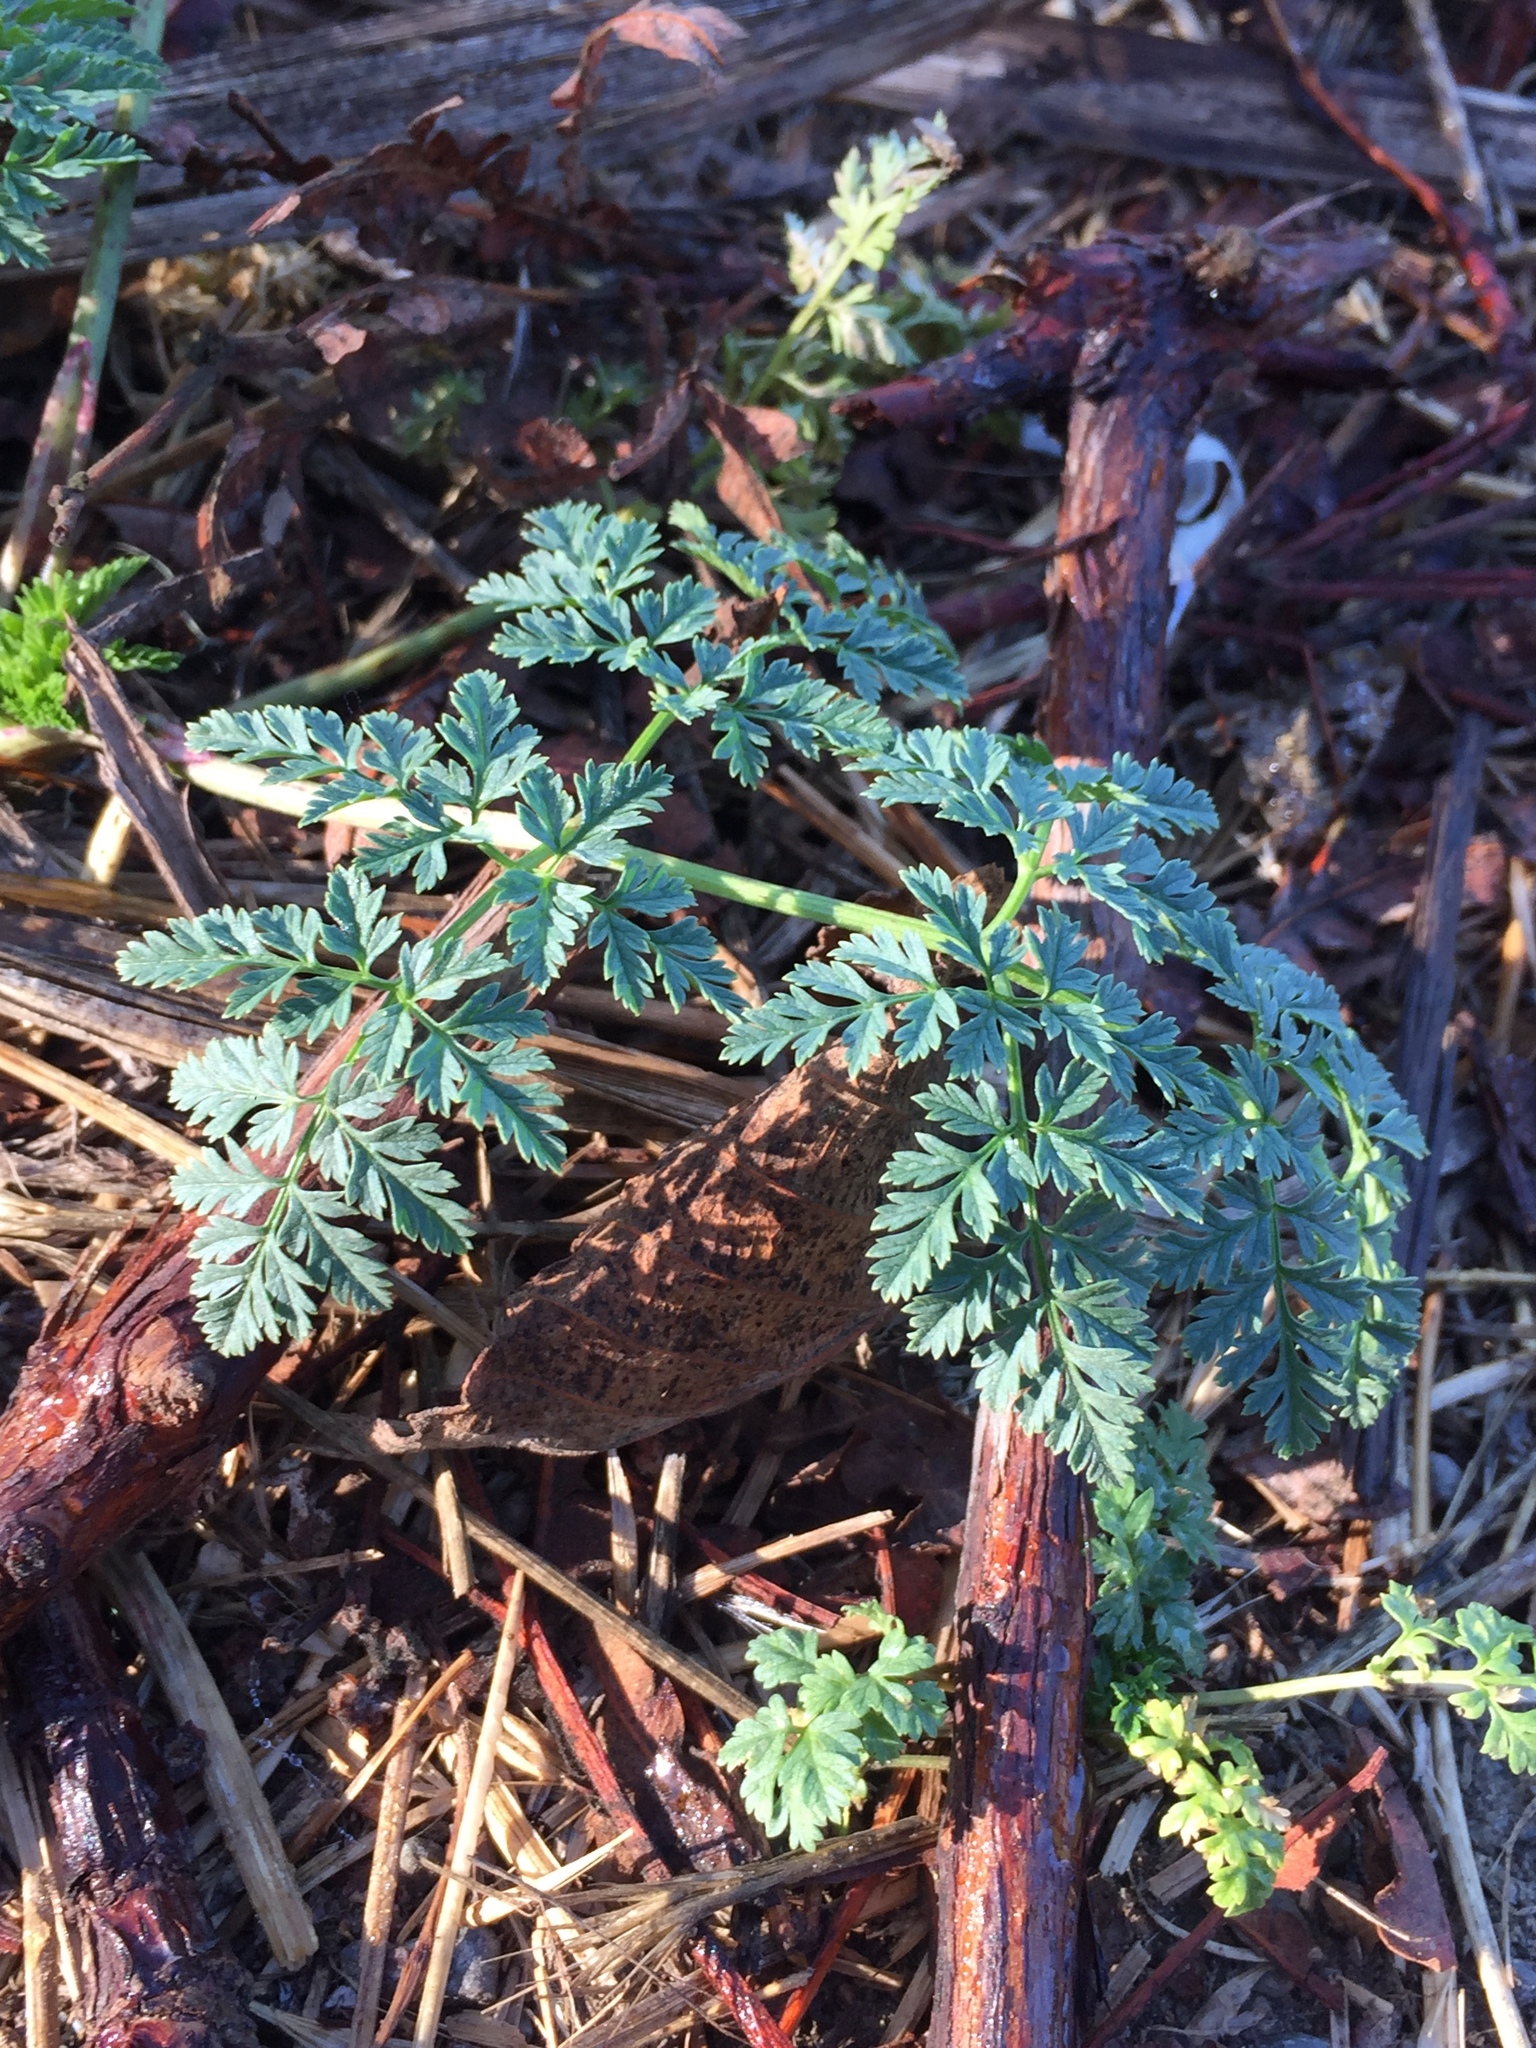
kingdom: Plantae
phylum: Tracheophyta
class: Magnoliopsida
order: Apiales
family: Apiaceae
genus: Conium
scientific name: Conium maculatum
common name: Hemlock
